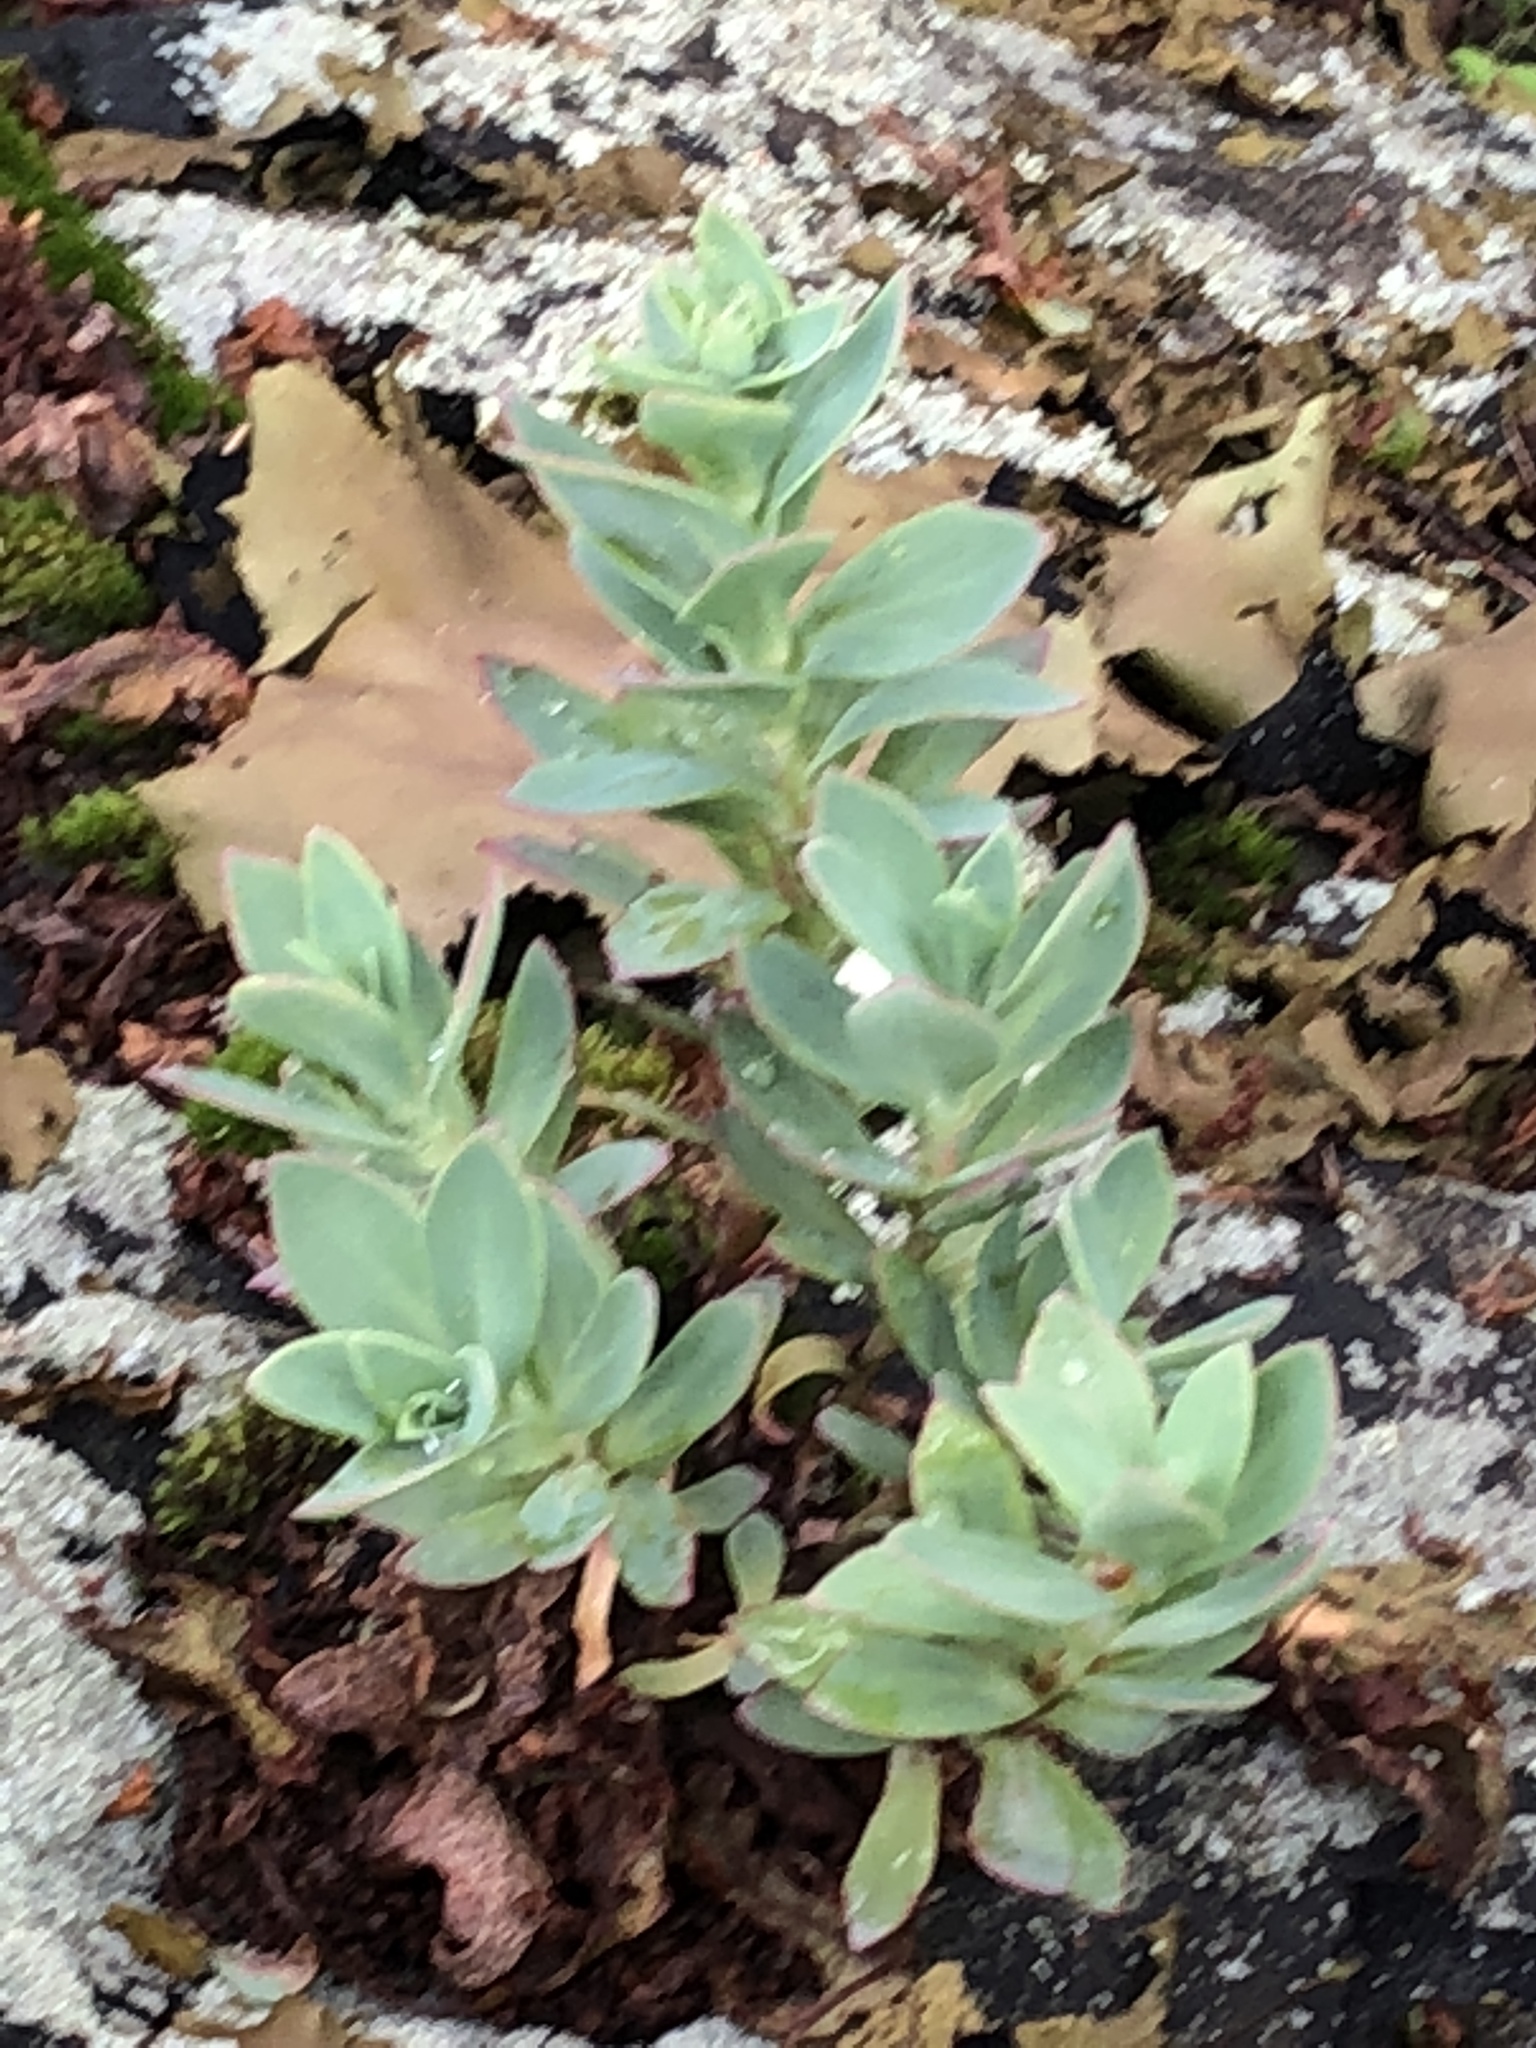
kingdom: Plantae
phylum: Tracheophyta
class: Magnoliopsida
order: Saxifragales
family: Crassulaceae
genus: Hylotelephium
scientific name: Hylotelephium telephioides
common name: Allegheny stonecrop
